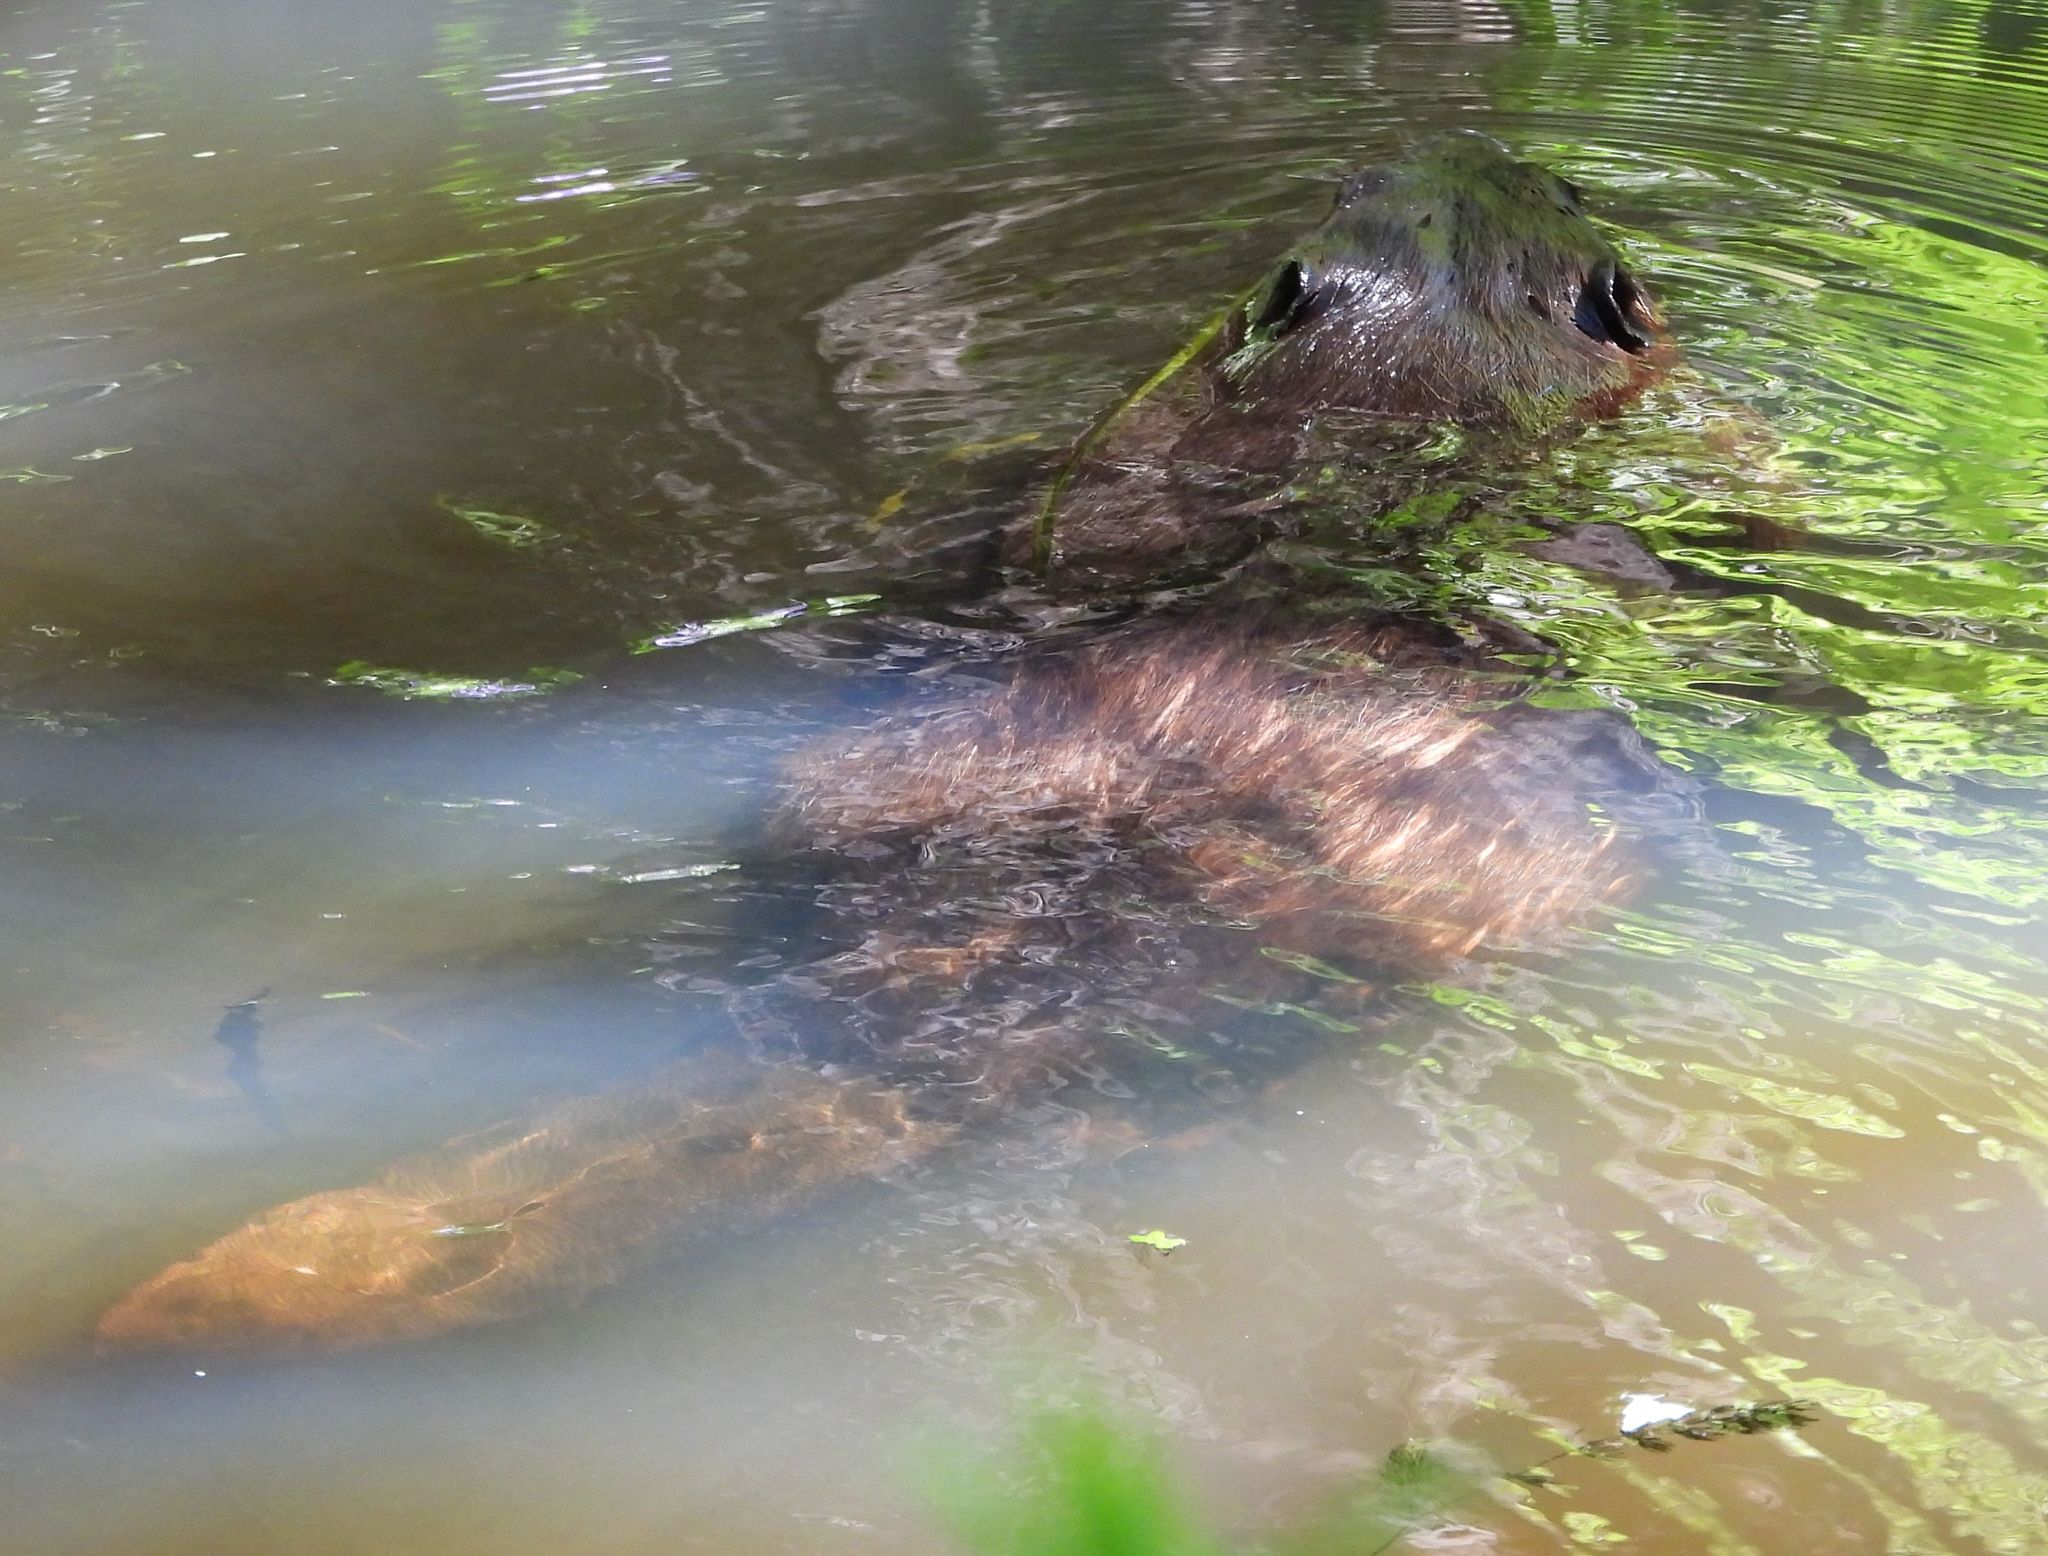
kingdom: Animalia
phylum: Chordata
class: Mammalia
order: Rodentia
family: Castoridae
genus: Castor
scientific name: Castor canadensis
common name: American beaver
